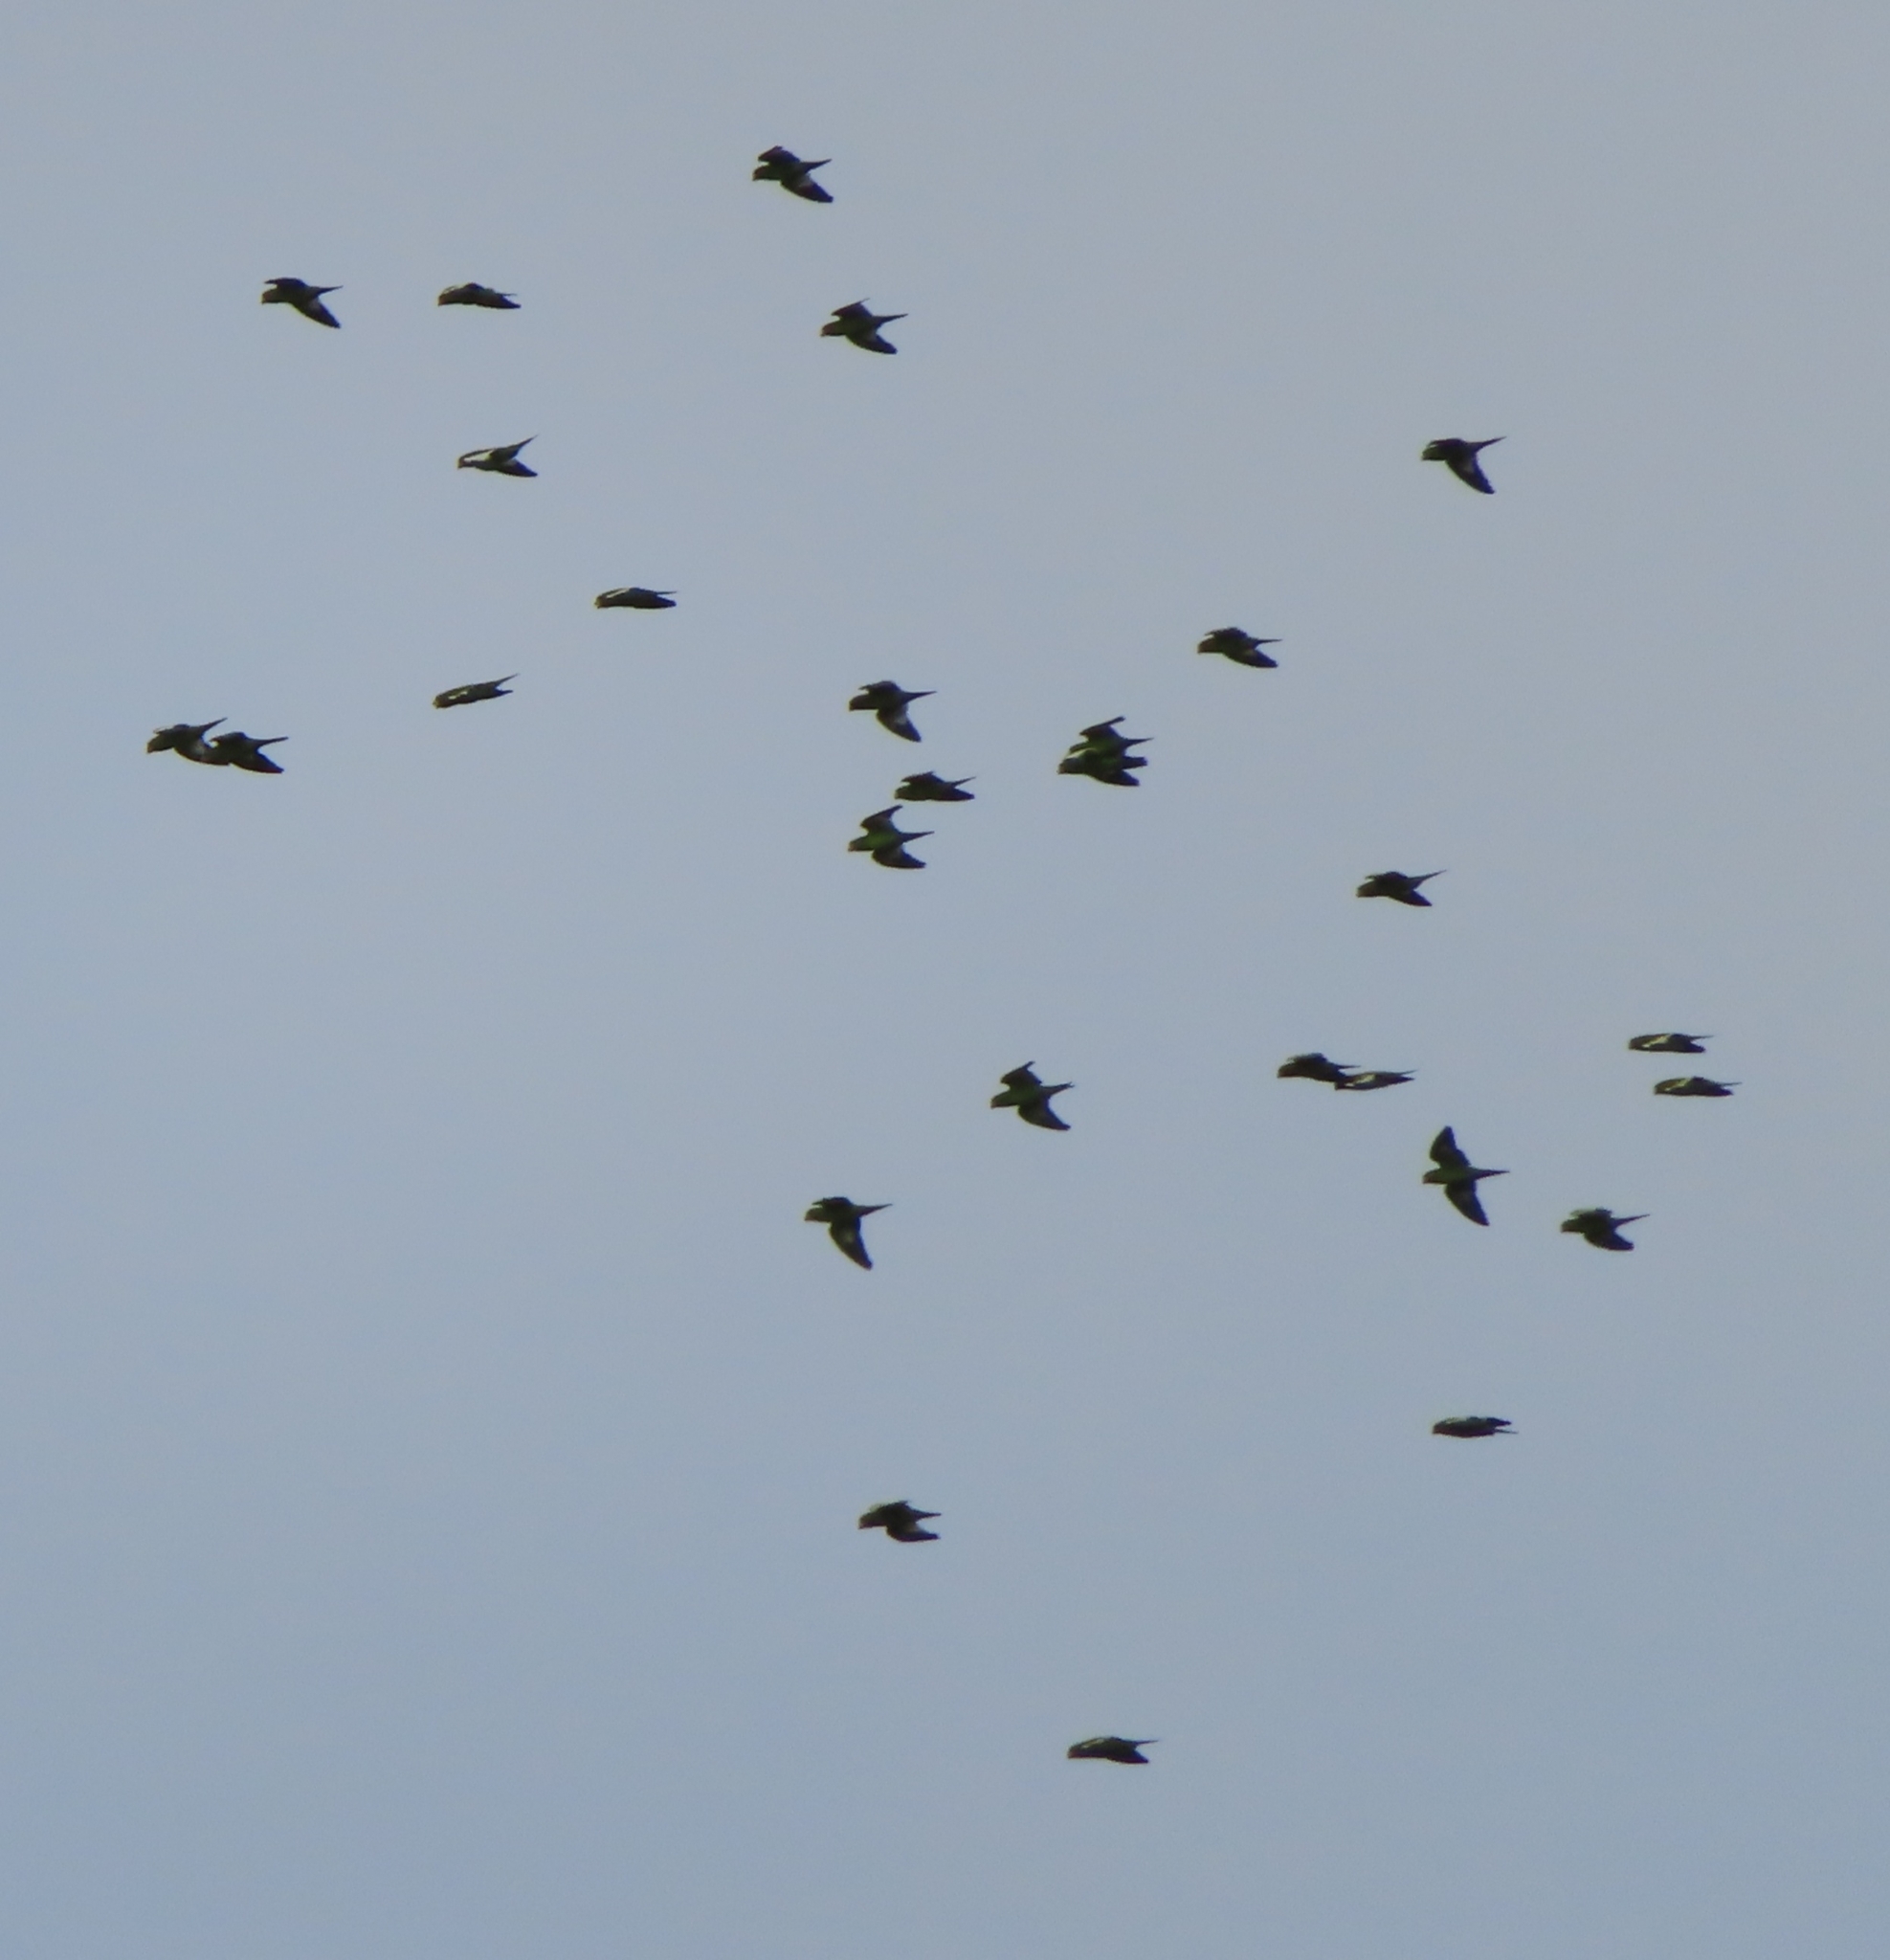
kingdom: Animalia
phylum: Chordata
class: Aves
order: Psittaciformes
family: Psittacidae
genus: Brotogeris
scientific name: Brotogeris versicolurus
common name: White-winged parakeet
